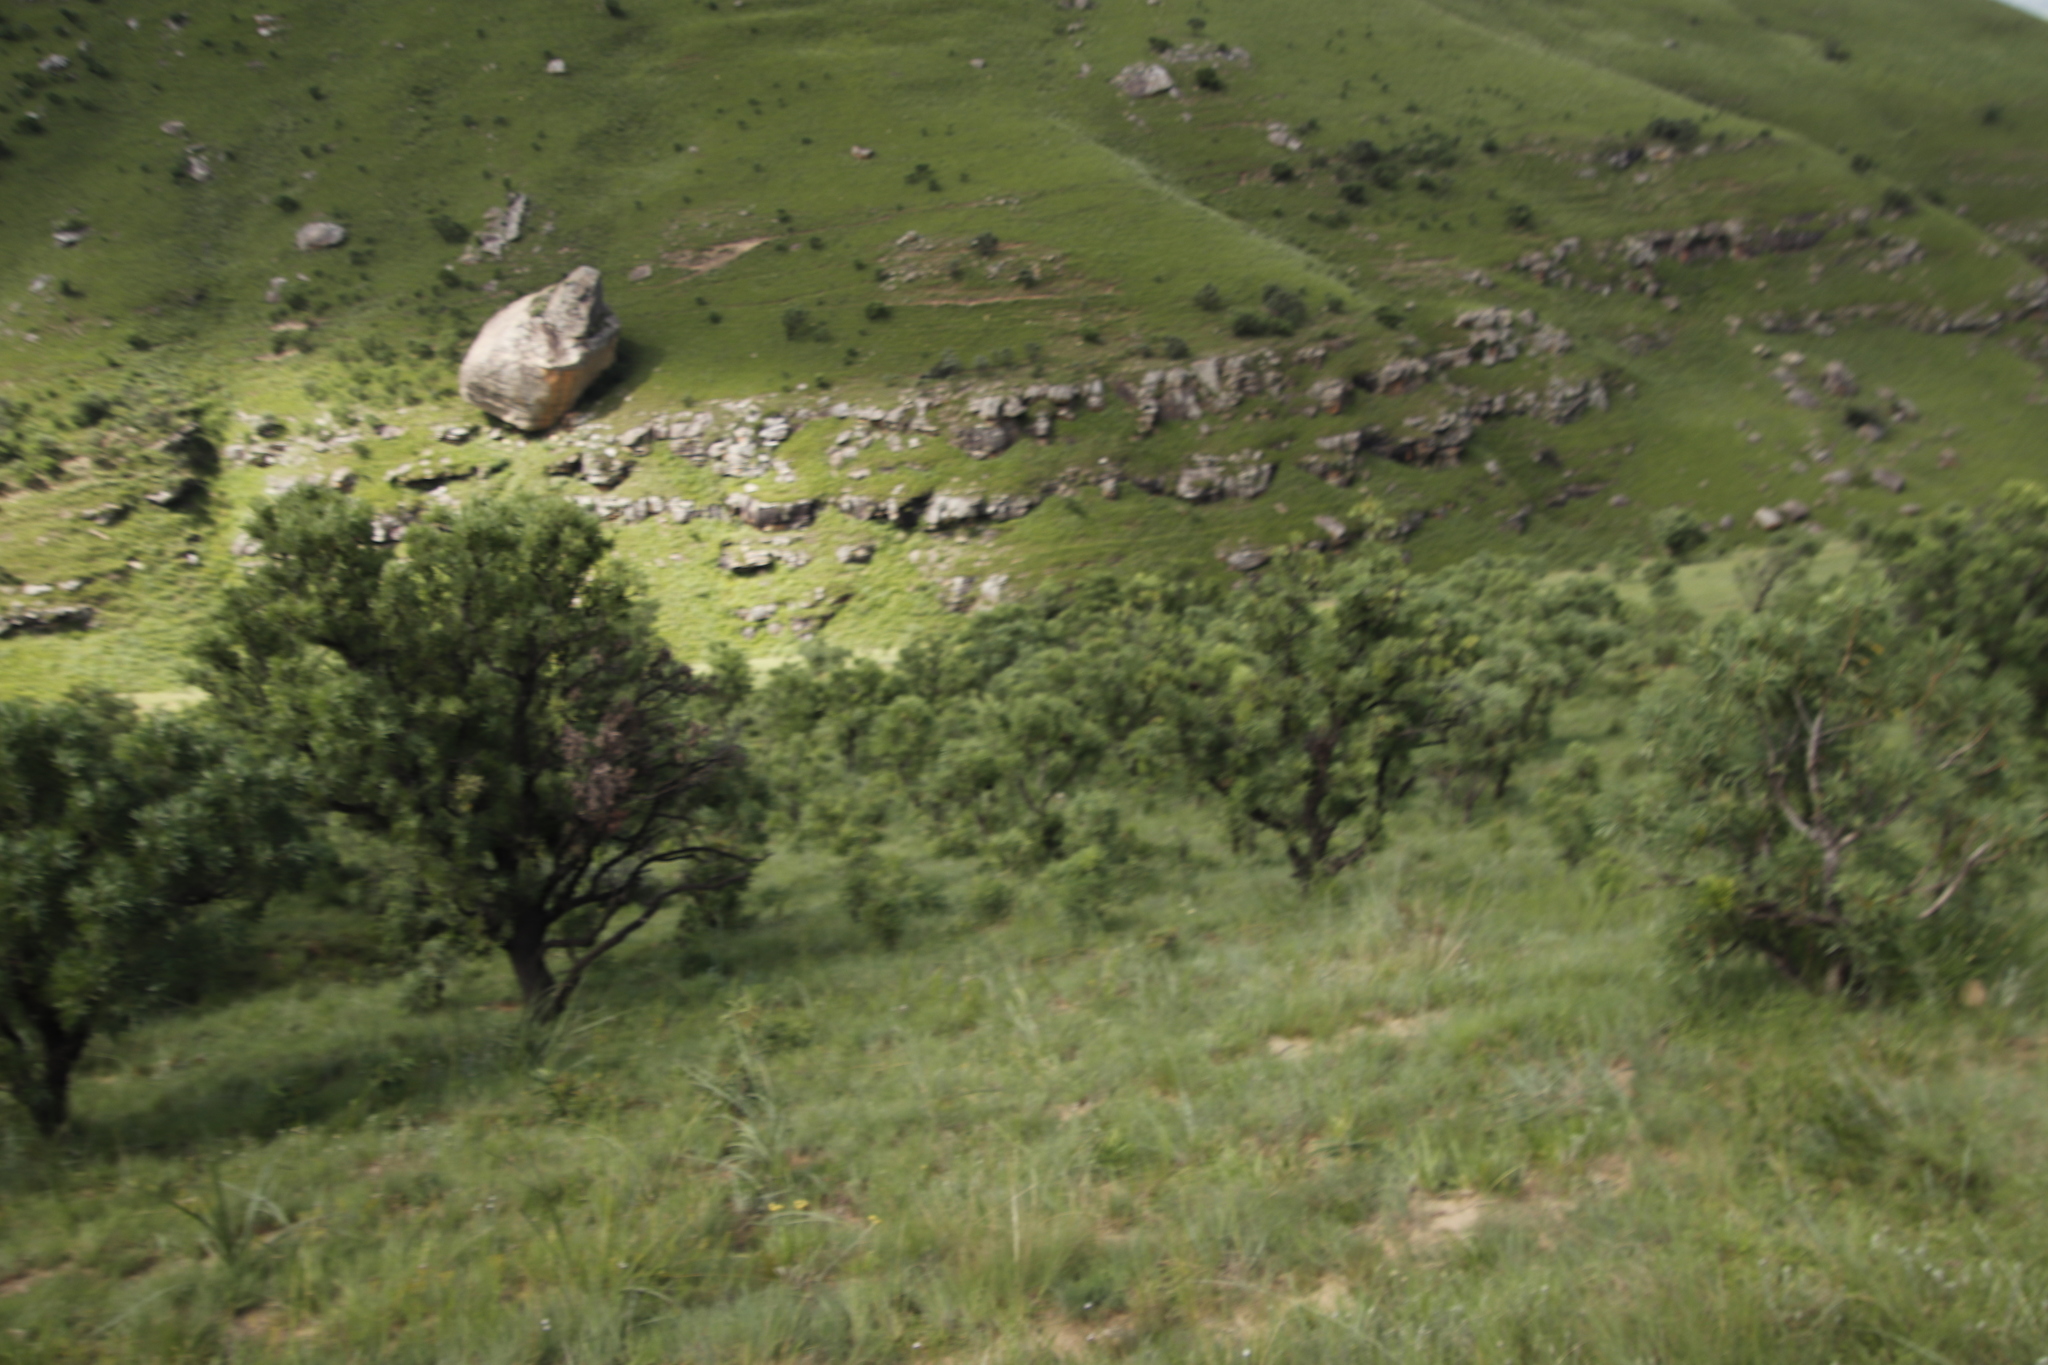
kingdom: Plantae
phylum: Tracheophyta
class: Magnoliopsida
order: Proteales
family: Proteaceae
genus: Protea
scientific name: Protea caffra
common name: Common sugarbush
